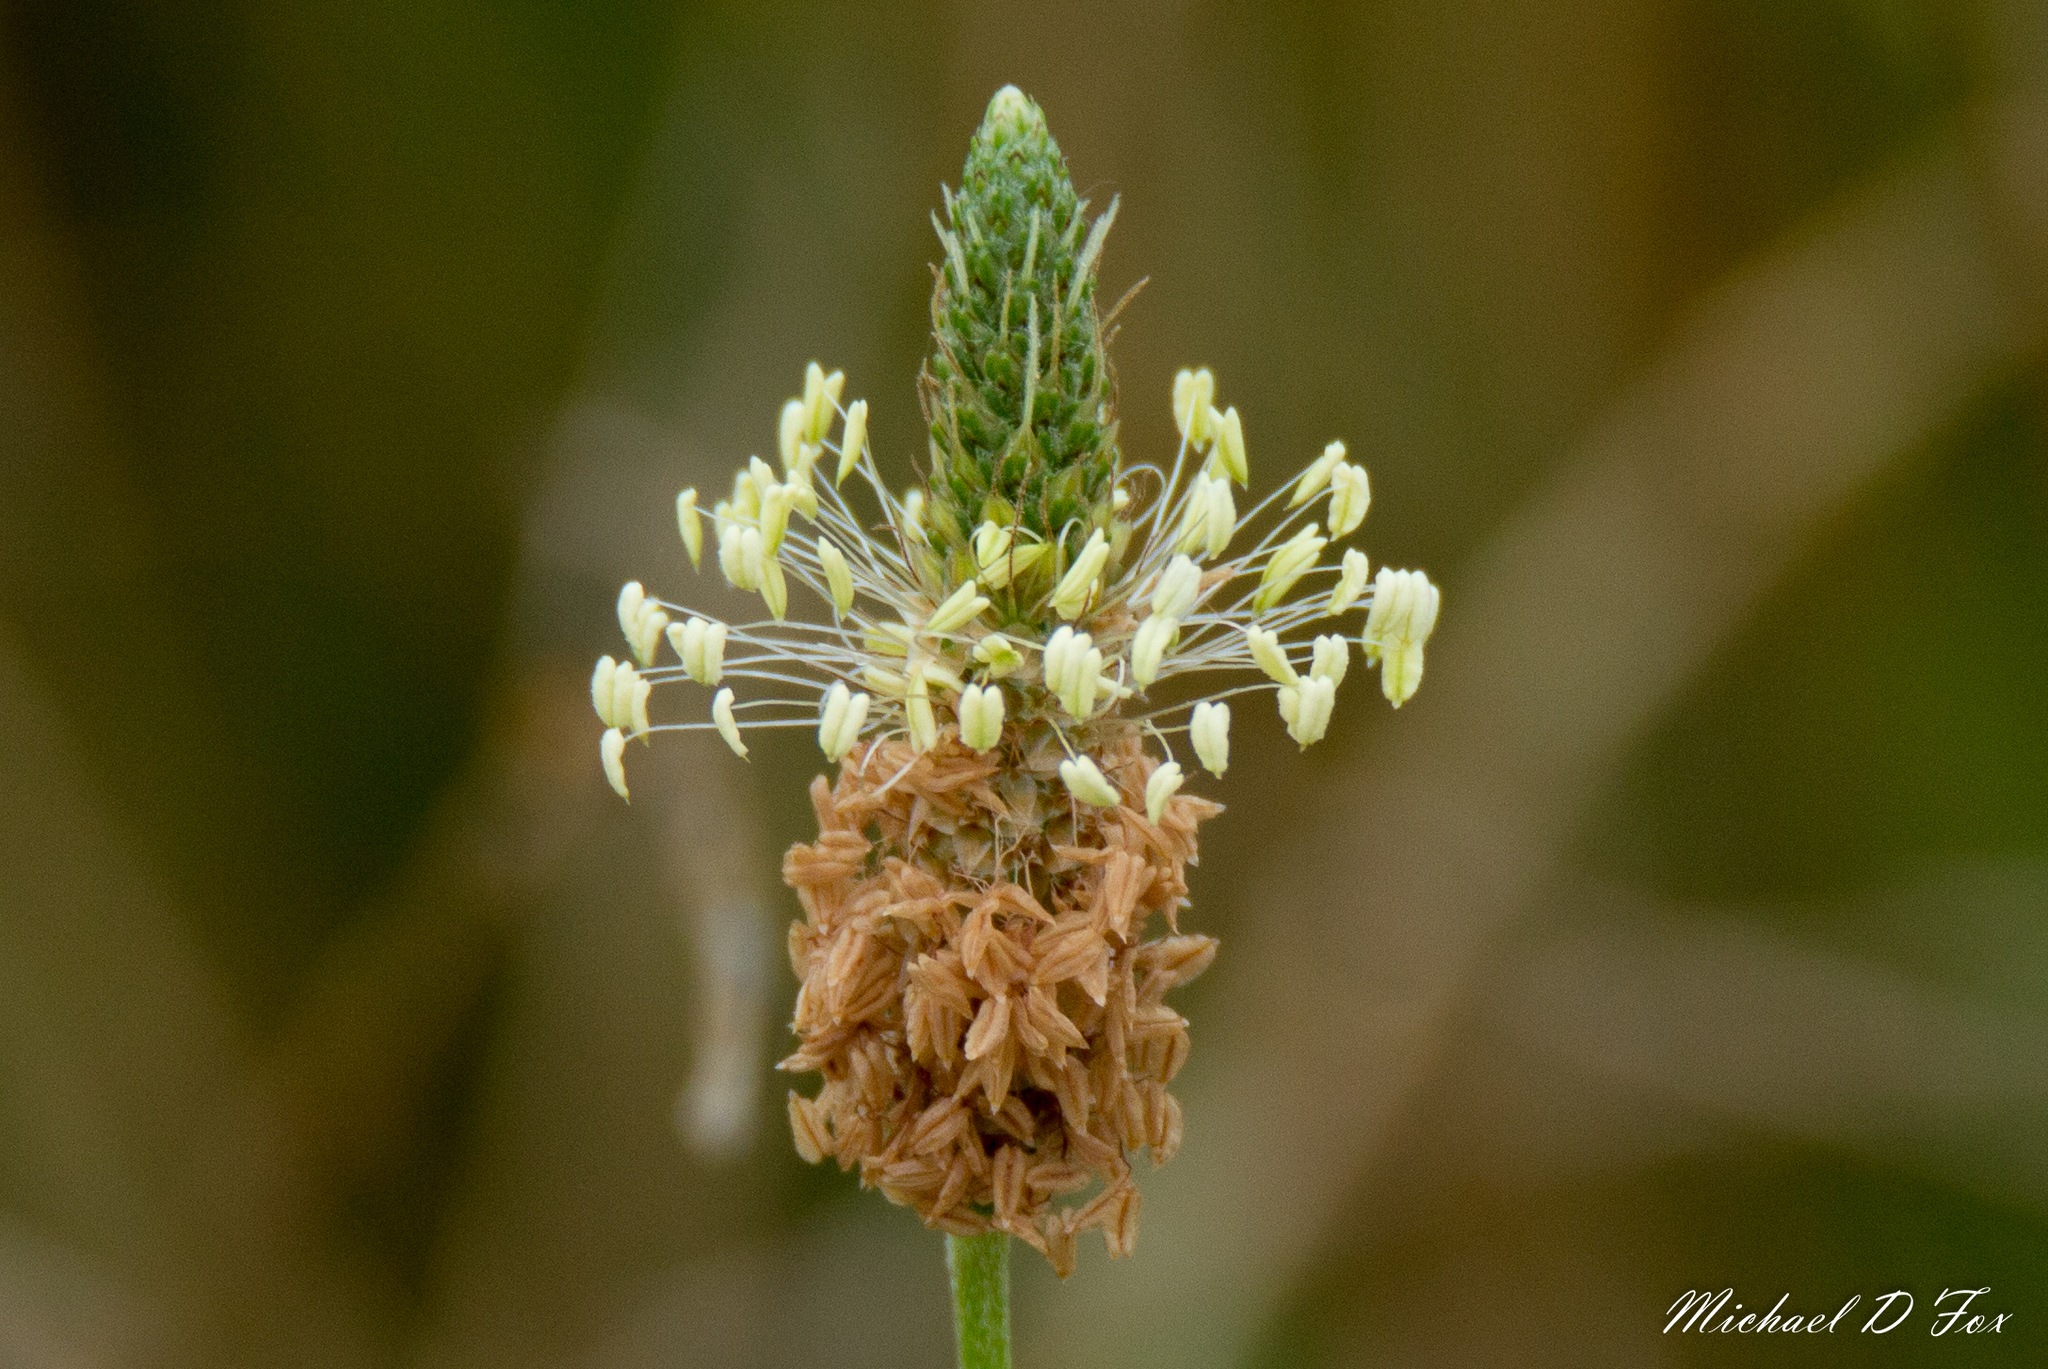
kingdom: Plantae
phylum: Tracheophyta
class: Magnoliopsida
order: Lamiales
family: Plantaginaceae
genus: Plantago
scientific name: Plantago lanceolata
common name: Ribwort plantain
